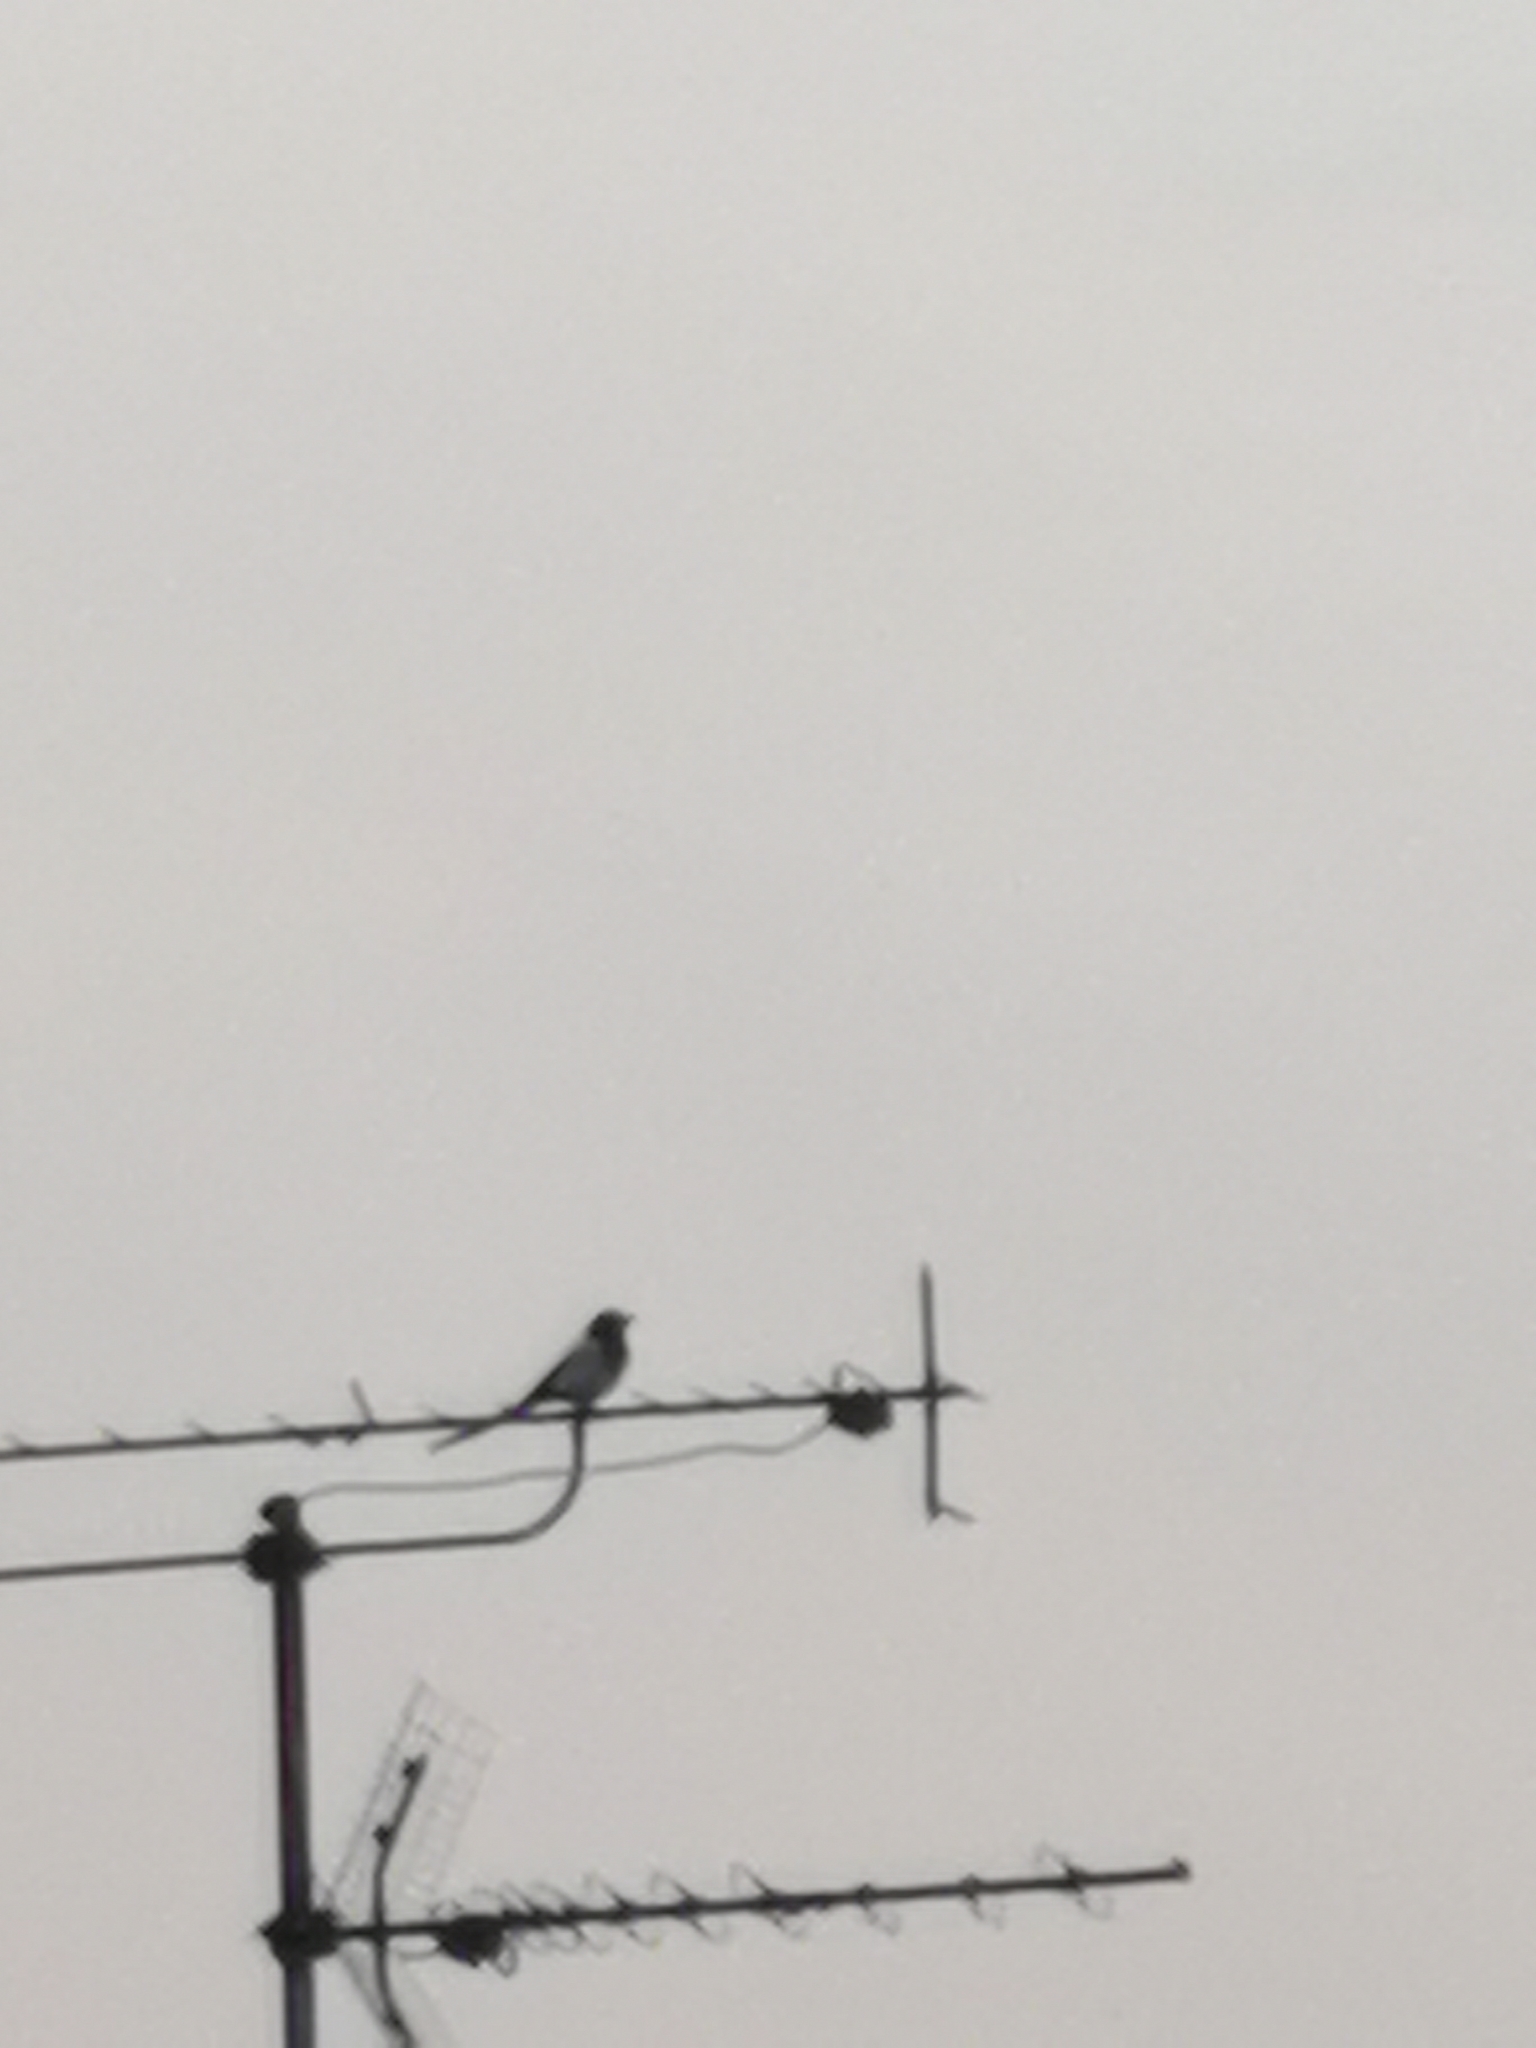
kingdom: Animalia
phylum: Chordata
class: Aves
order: Passeriformes
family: Corvidae
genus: Pica
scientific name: Pica pica
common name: Eurasian magpie
